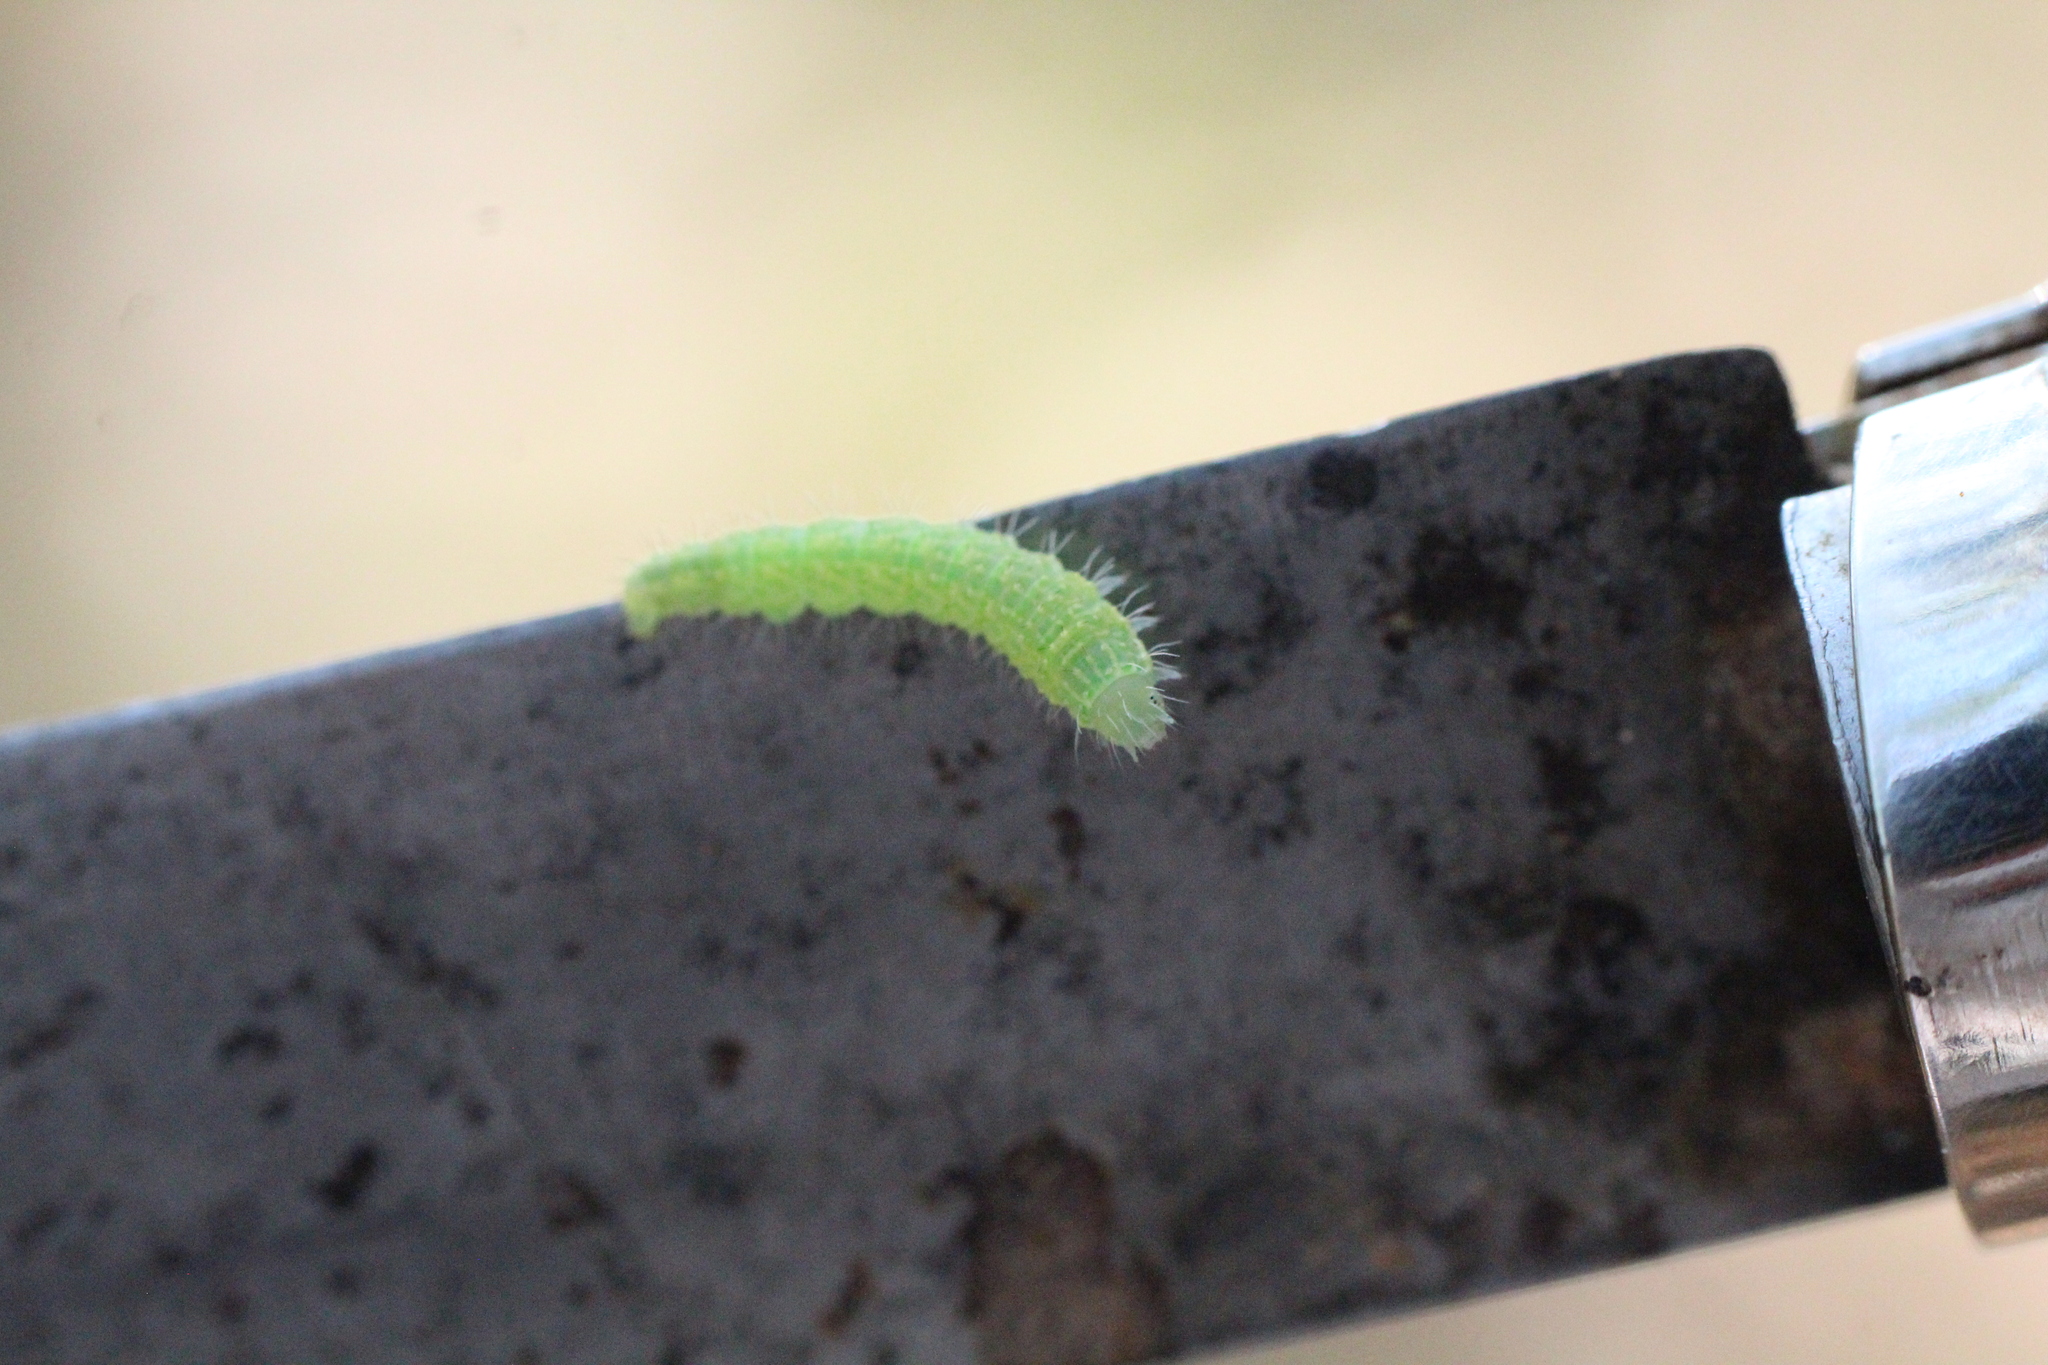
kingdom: Animalia
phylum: Arthropoda
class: Insecta
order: Lepidoptera
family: Nolidae
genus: Bena
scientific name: Bena bicolorana
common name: Scarce silver-lines
